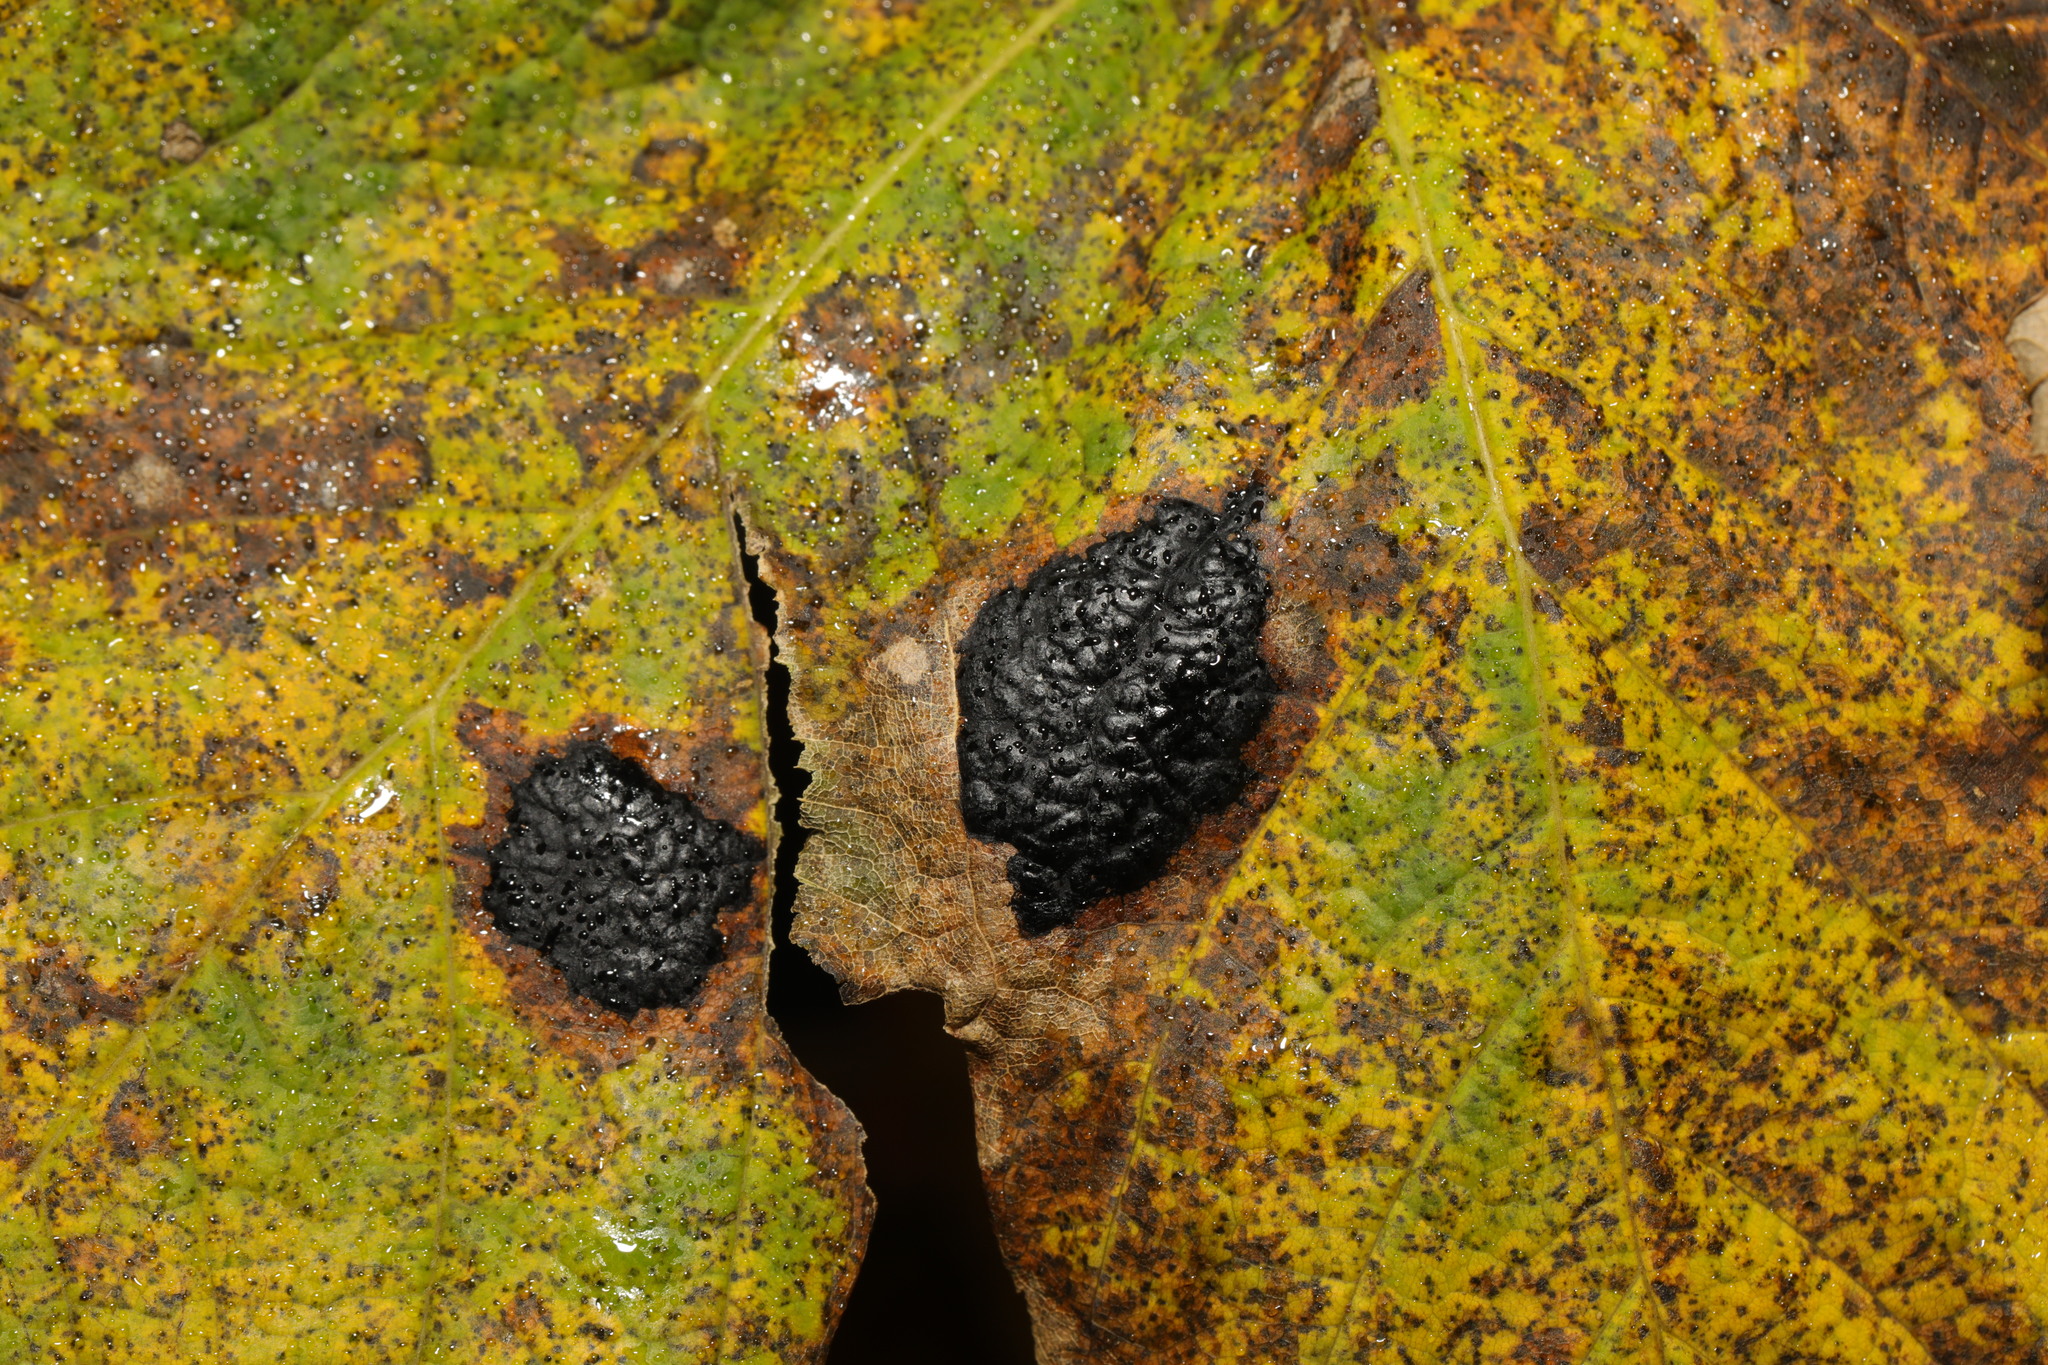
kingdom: Fungi
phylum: Ascomycota
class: Leotiomycetes
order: Rhytismatales
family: Rhytismataceae
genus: Rhytisma
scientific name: Rhytisma acerinum
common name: European tar spot
